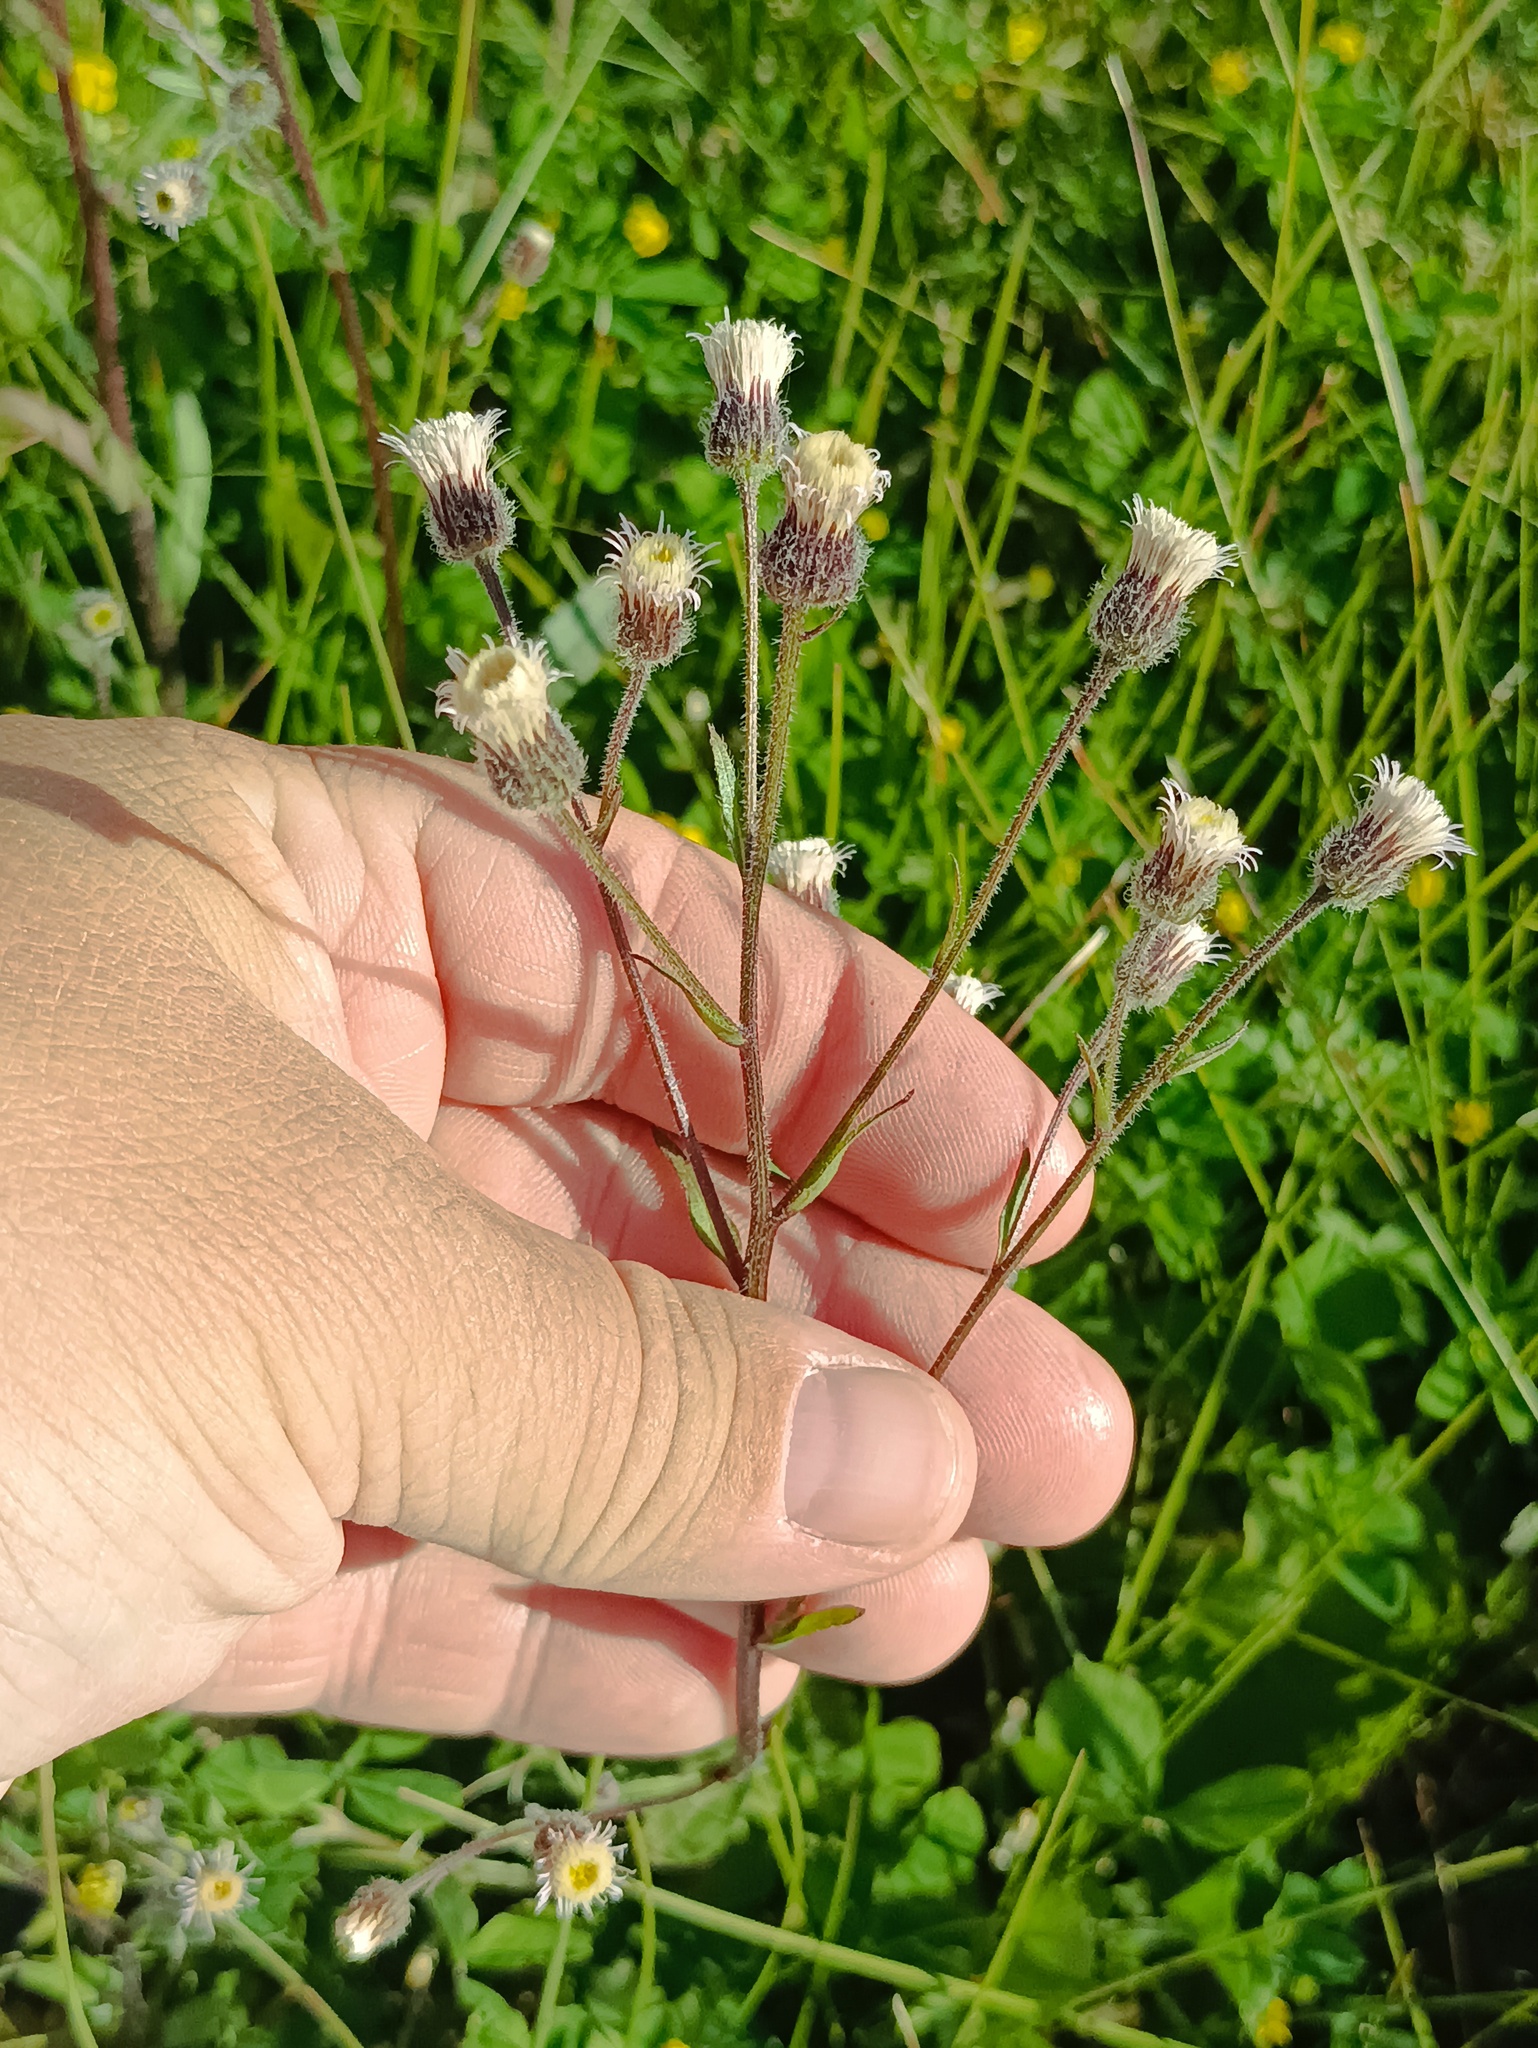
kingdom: Plantae
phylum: Tracheophyta
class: Magnoliopsida
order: Asterales
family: Asteraceae
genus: Erigeron
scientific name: Erigeron acris
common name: Blue fleabane
